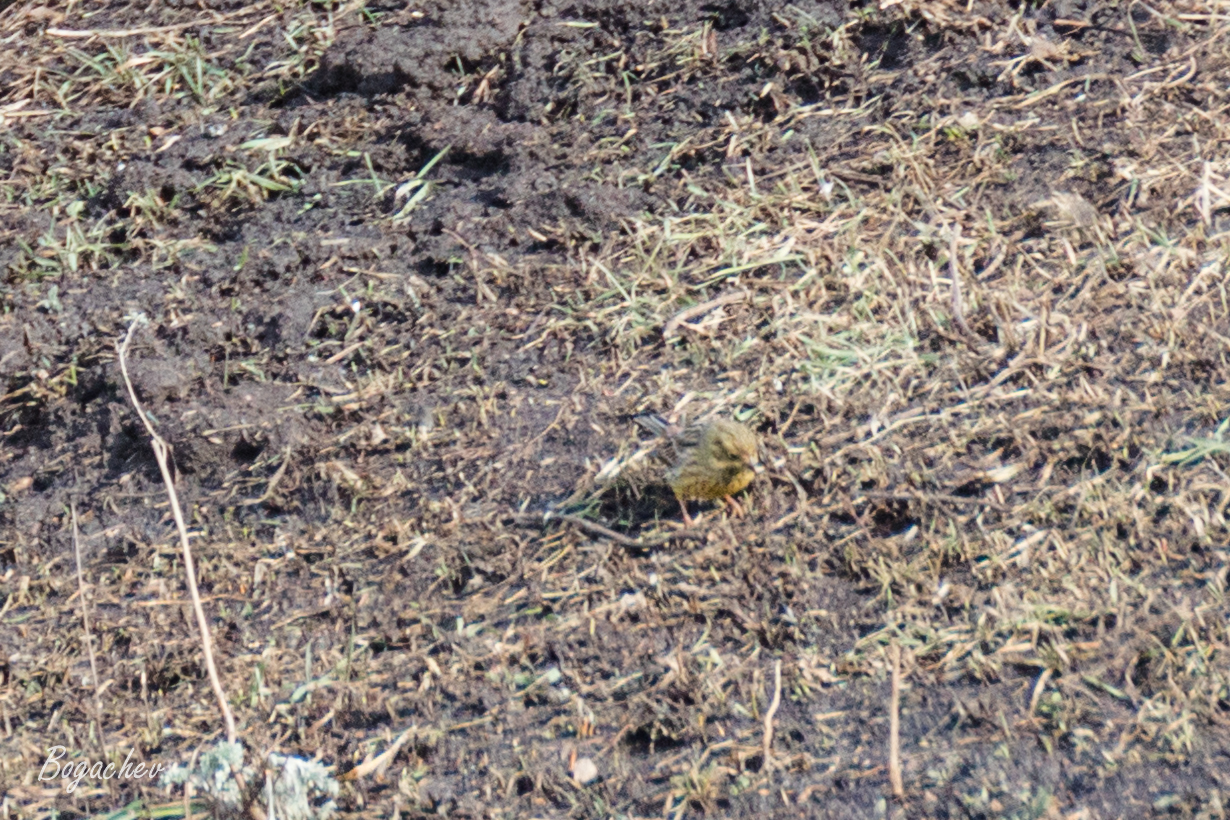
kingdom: Animalia
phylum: Chordata
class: Aves
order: Passeriformes
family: Emberizidae
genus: Emberiza
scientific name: Emberiza citrinella
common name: Yellowhammer
